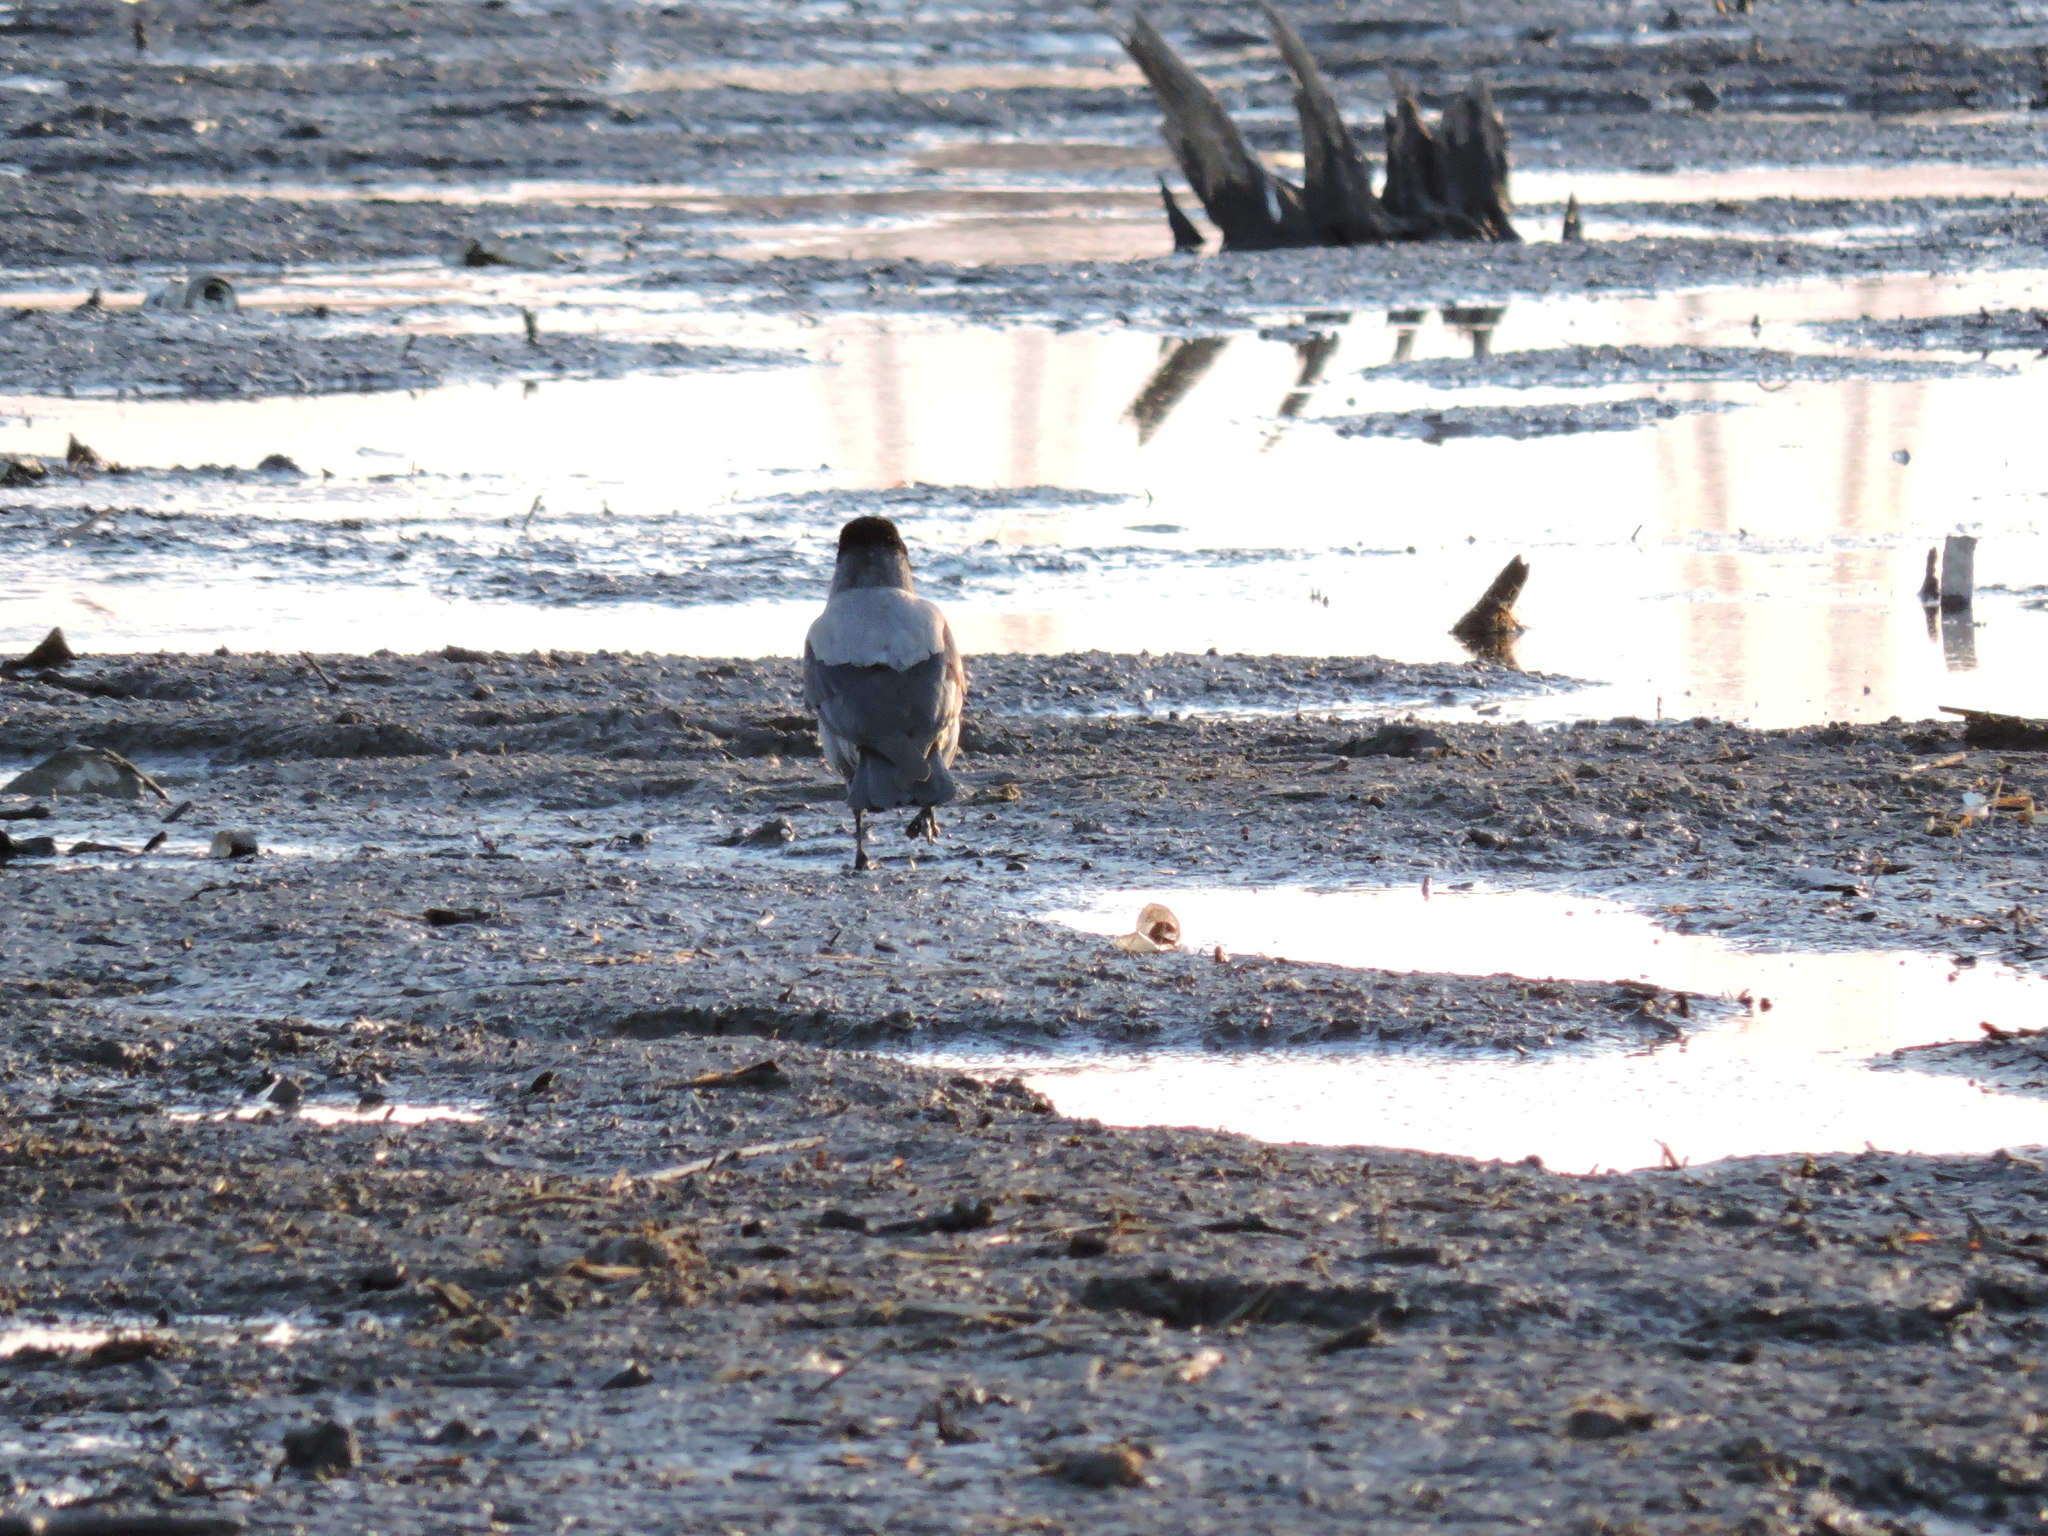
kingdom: Animalia
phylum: Chordata
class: Aves
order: Passeriformes
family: Corvidae
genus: Corvus
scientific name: Corvus cornix
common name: Hooded crow
